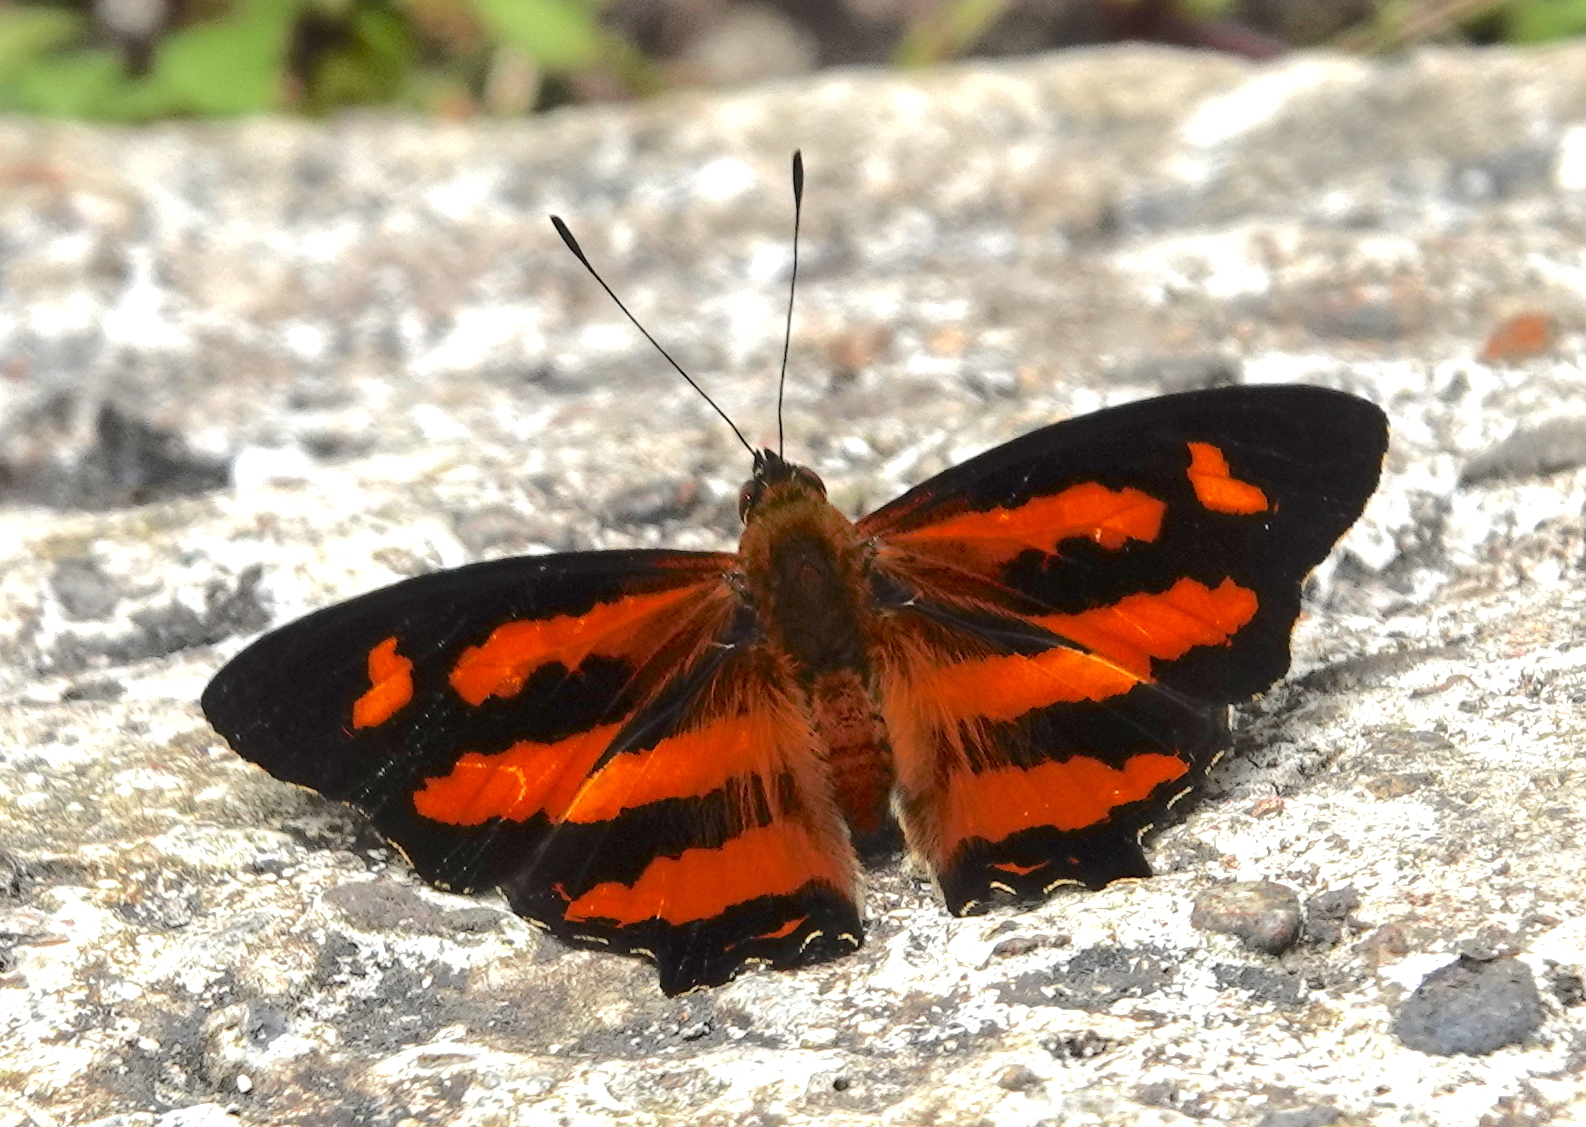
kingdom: Animalia
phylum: Arthropoda
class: Insecta
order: Lepidoptera
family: Nymphalidae
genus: Symbrenthia
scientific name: Symbrenthia hypselis
